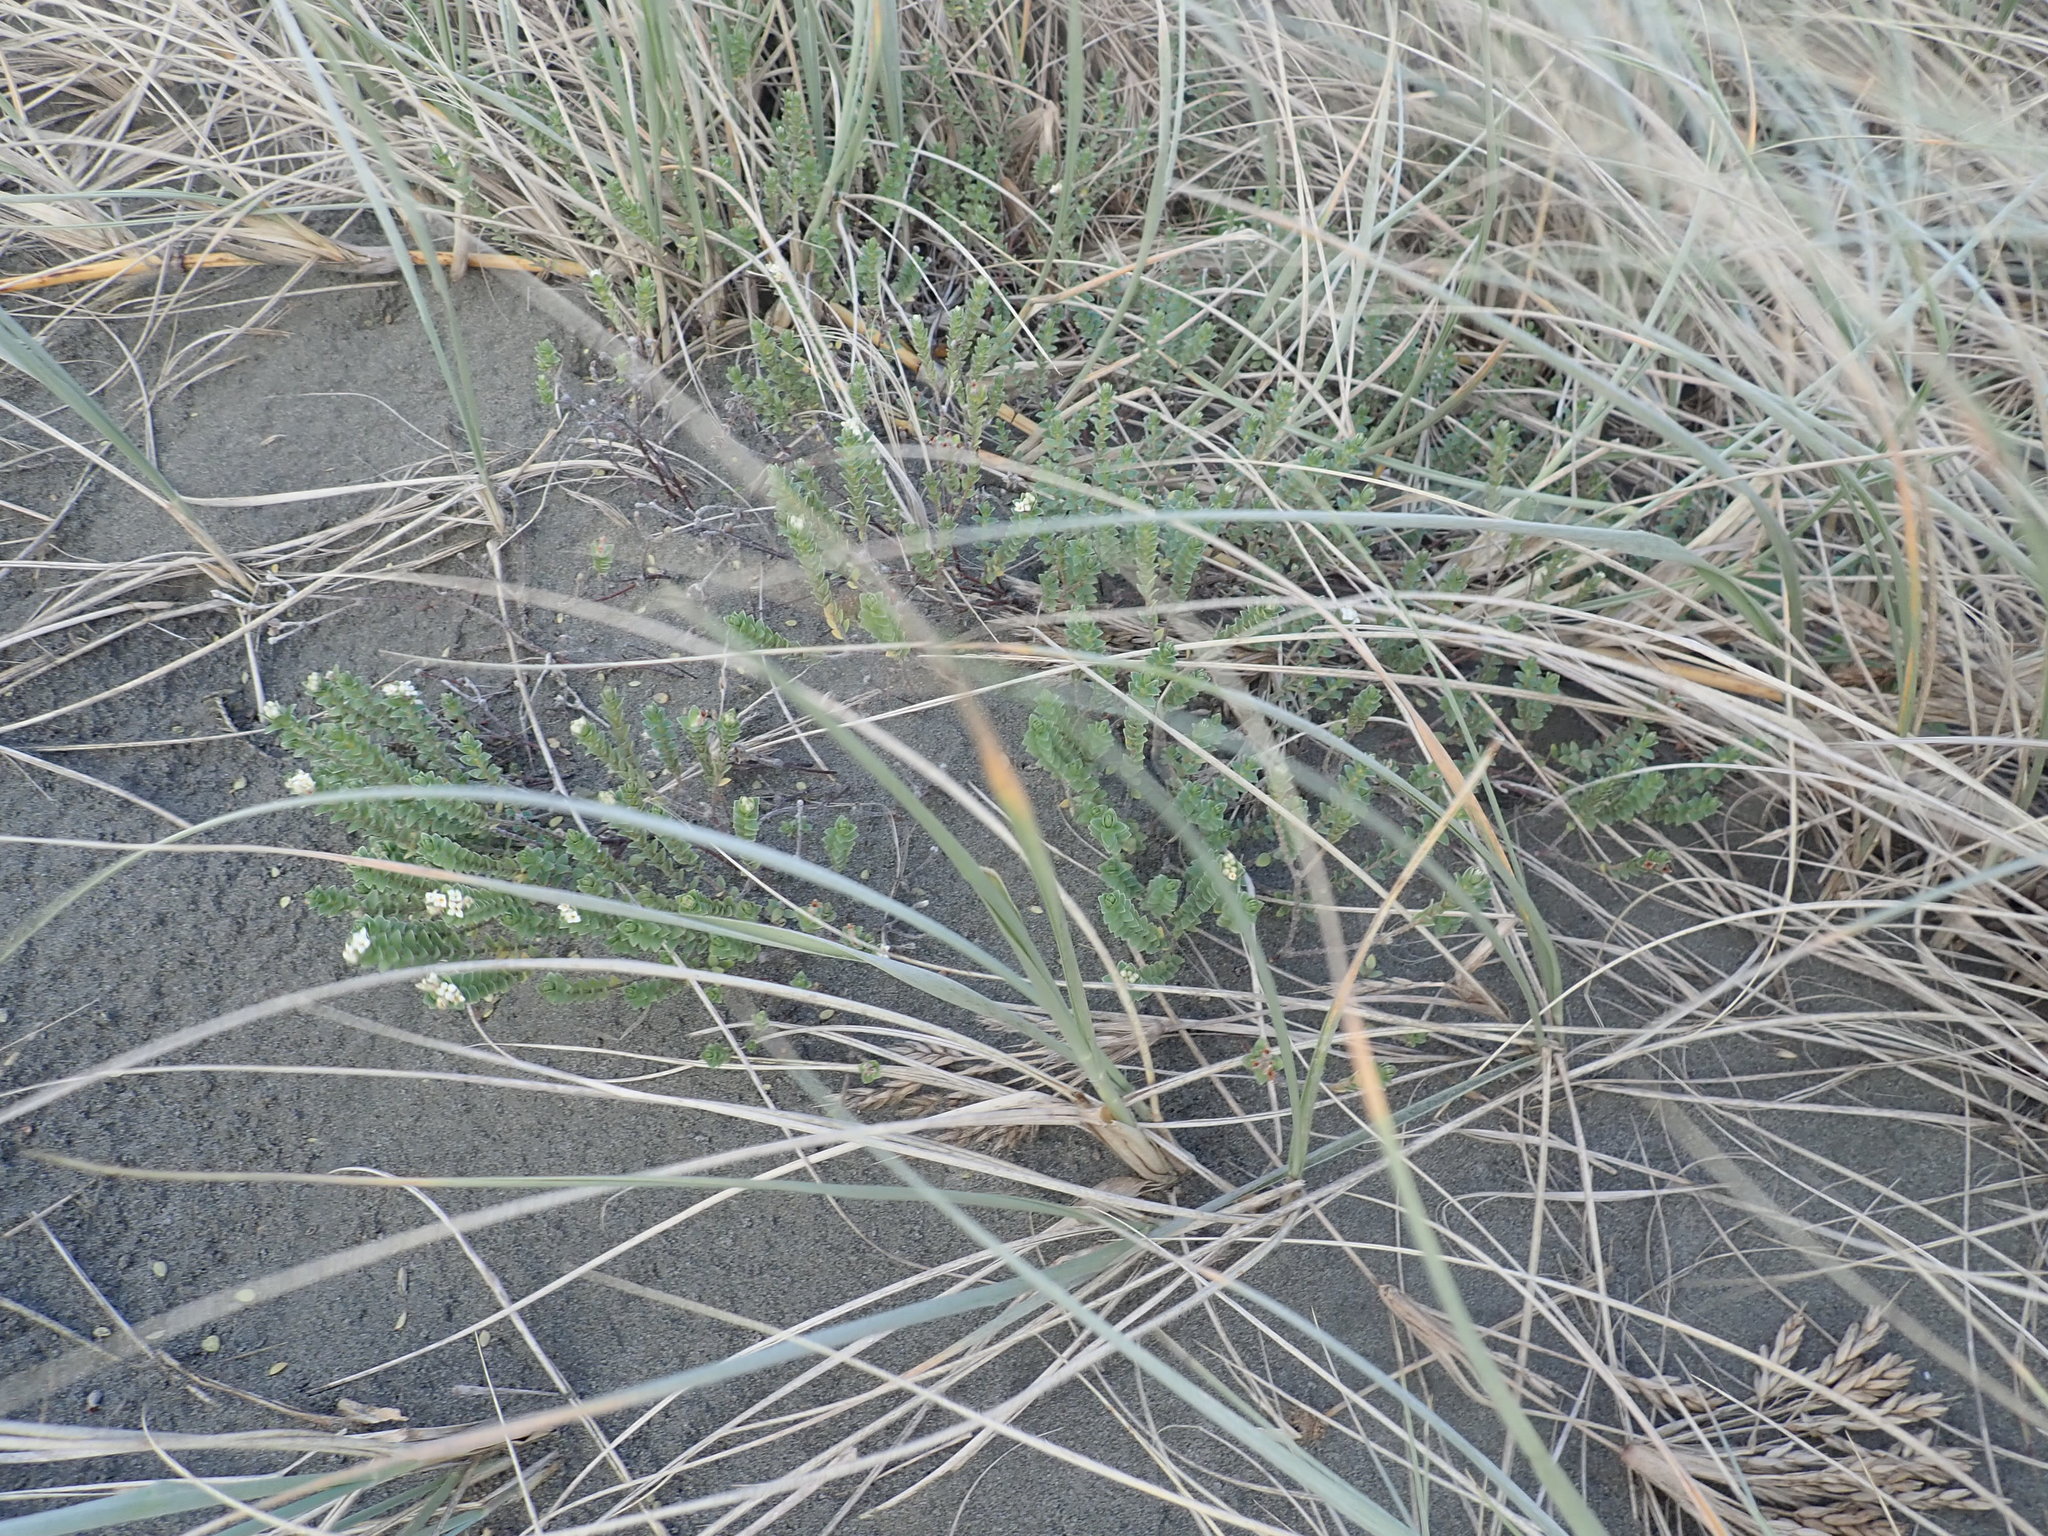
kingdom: Plantae
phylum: Tracheophyta
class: Magnoliopsida
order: Malvales
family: Thymelaeaceae
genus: Pimelea
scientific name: Pimelea villosa
